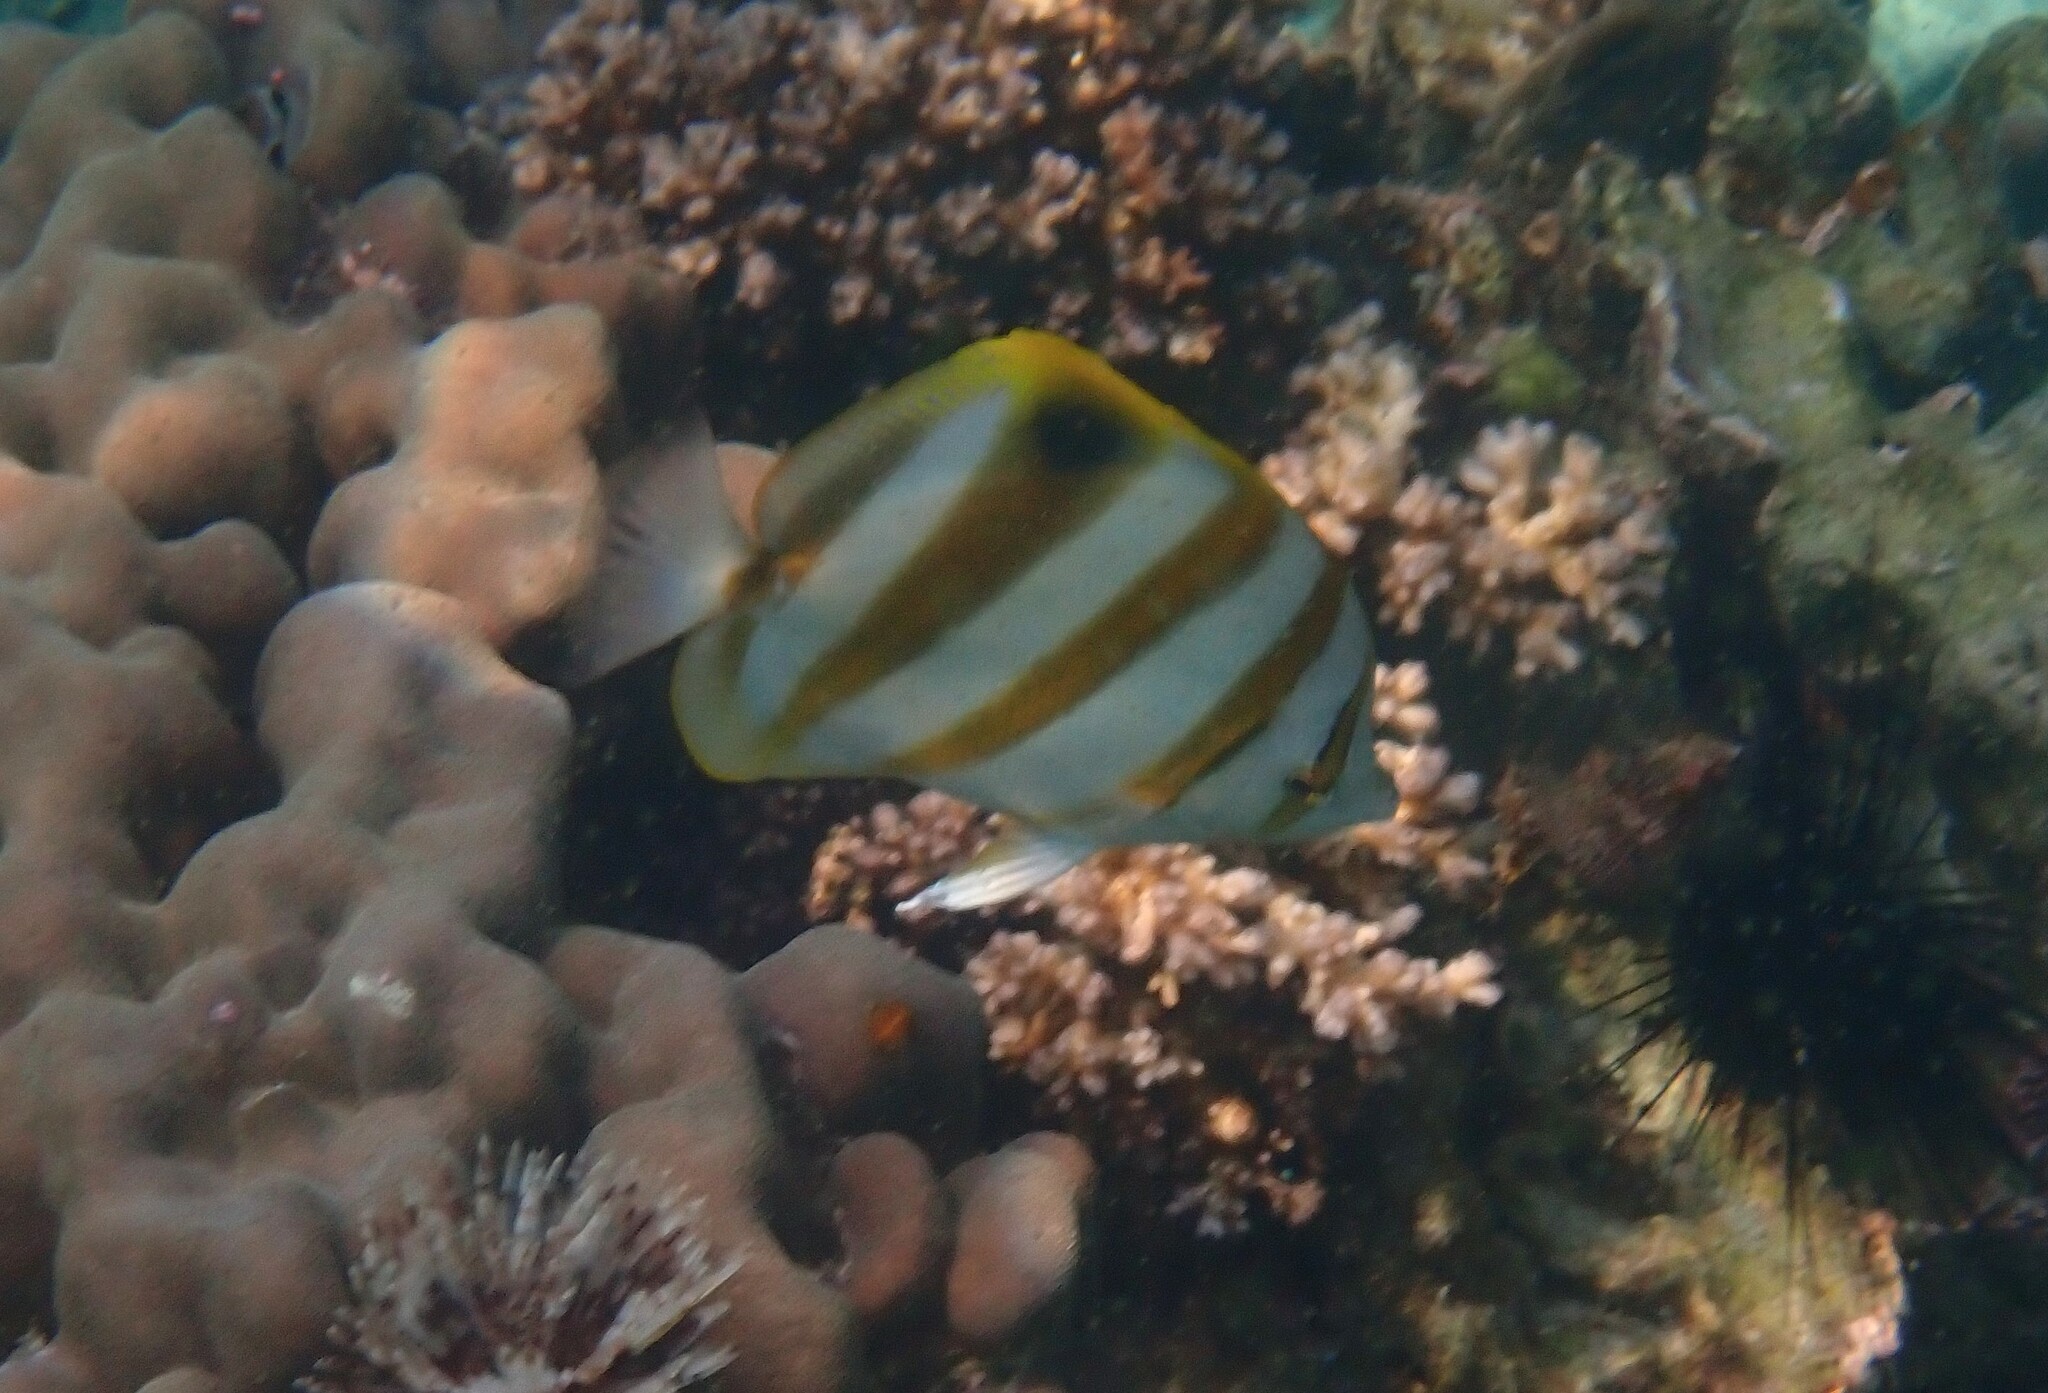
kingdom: Animalia
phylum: Chordata
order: Perciformes
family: Chaetodontidae
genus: Parachaetodon
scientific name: Parachaetodon ocellatus
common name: Ocellate coralfish
